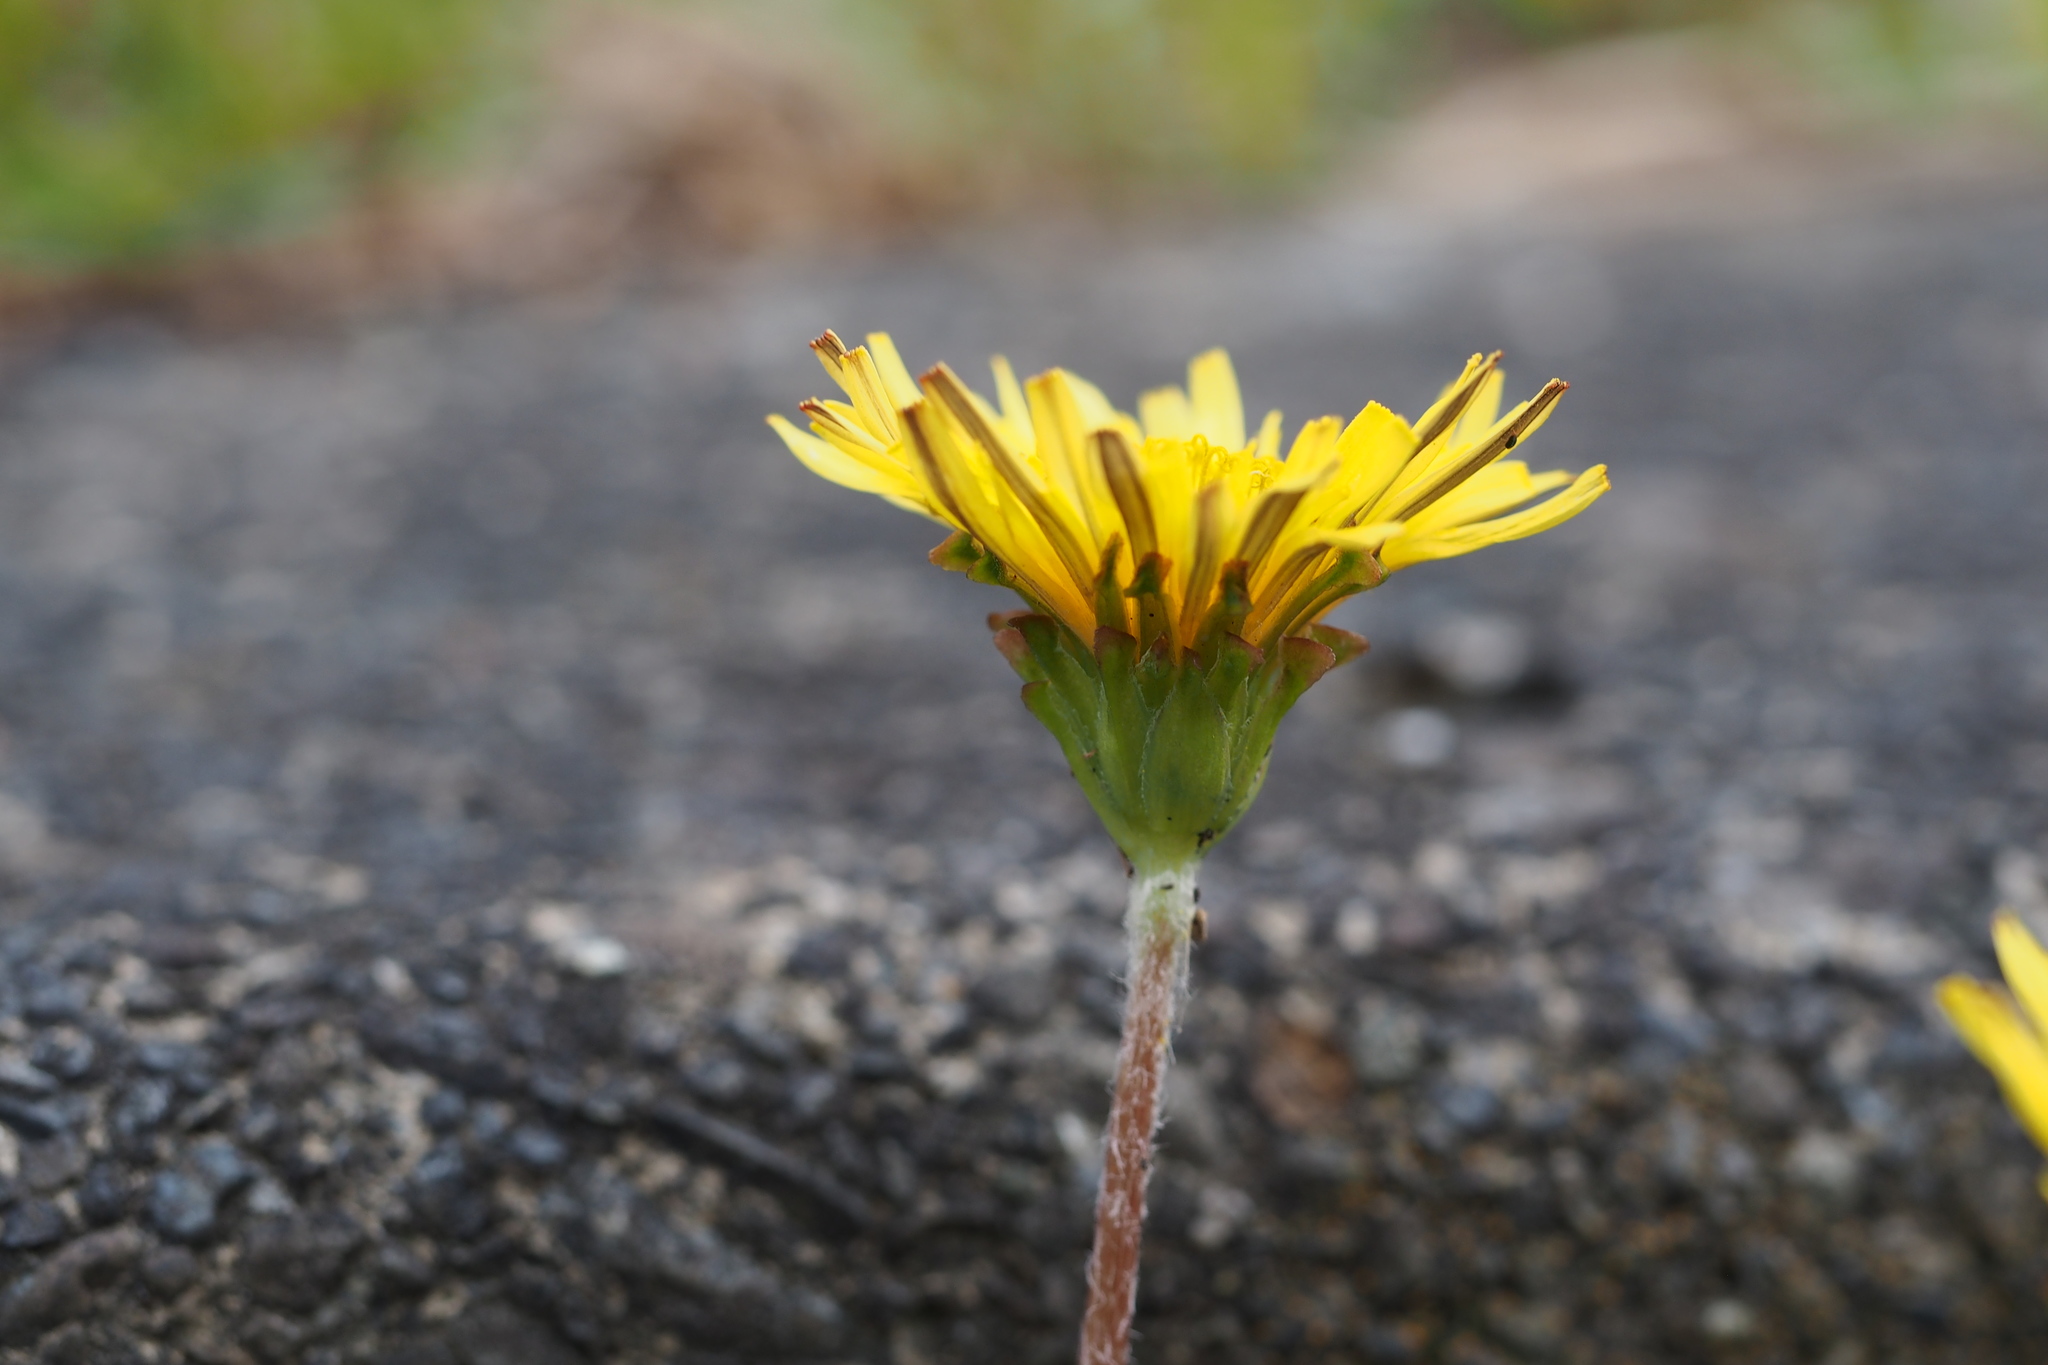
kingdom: Plantae
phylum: Tracheophyta
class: Magnoliopsida
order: Asterales
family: Asteraceae
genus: Taraxacum
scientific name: Taraxacum platycarpum
